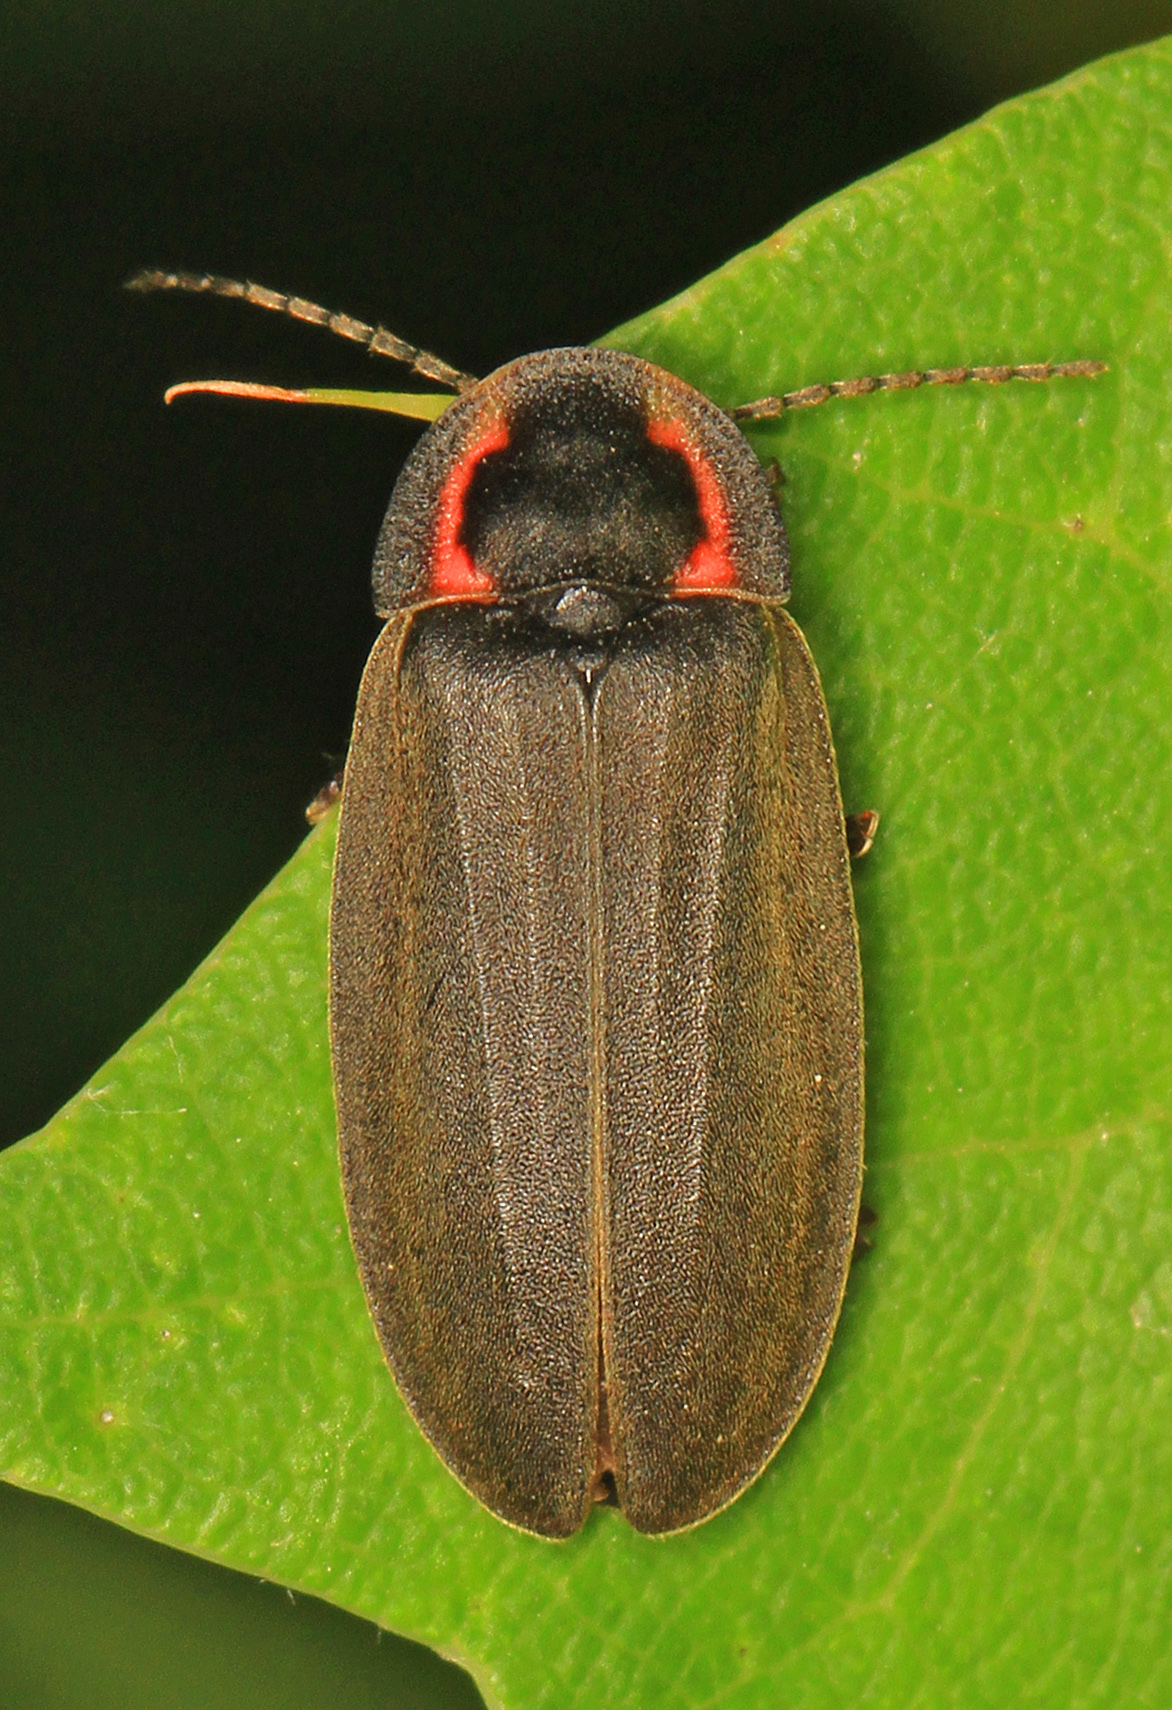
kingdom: Animalia
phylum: Arthropoda
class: Insecta
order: Coleoptera
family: Lampyridae
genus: Photinus
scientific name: Photinus corrusca
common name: Winter firefly
